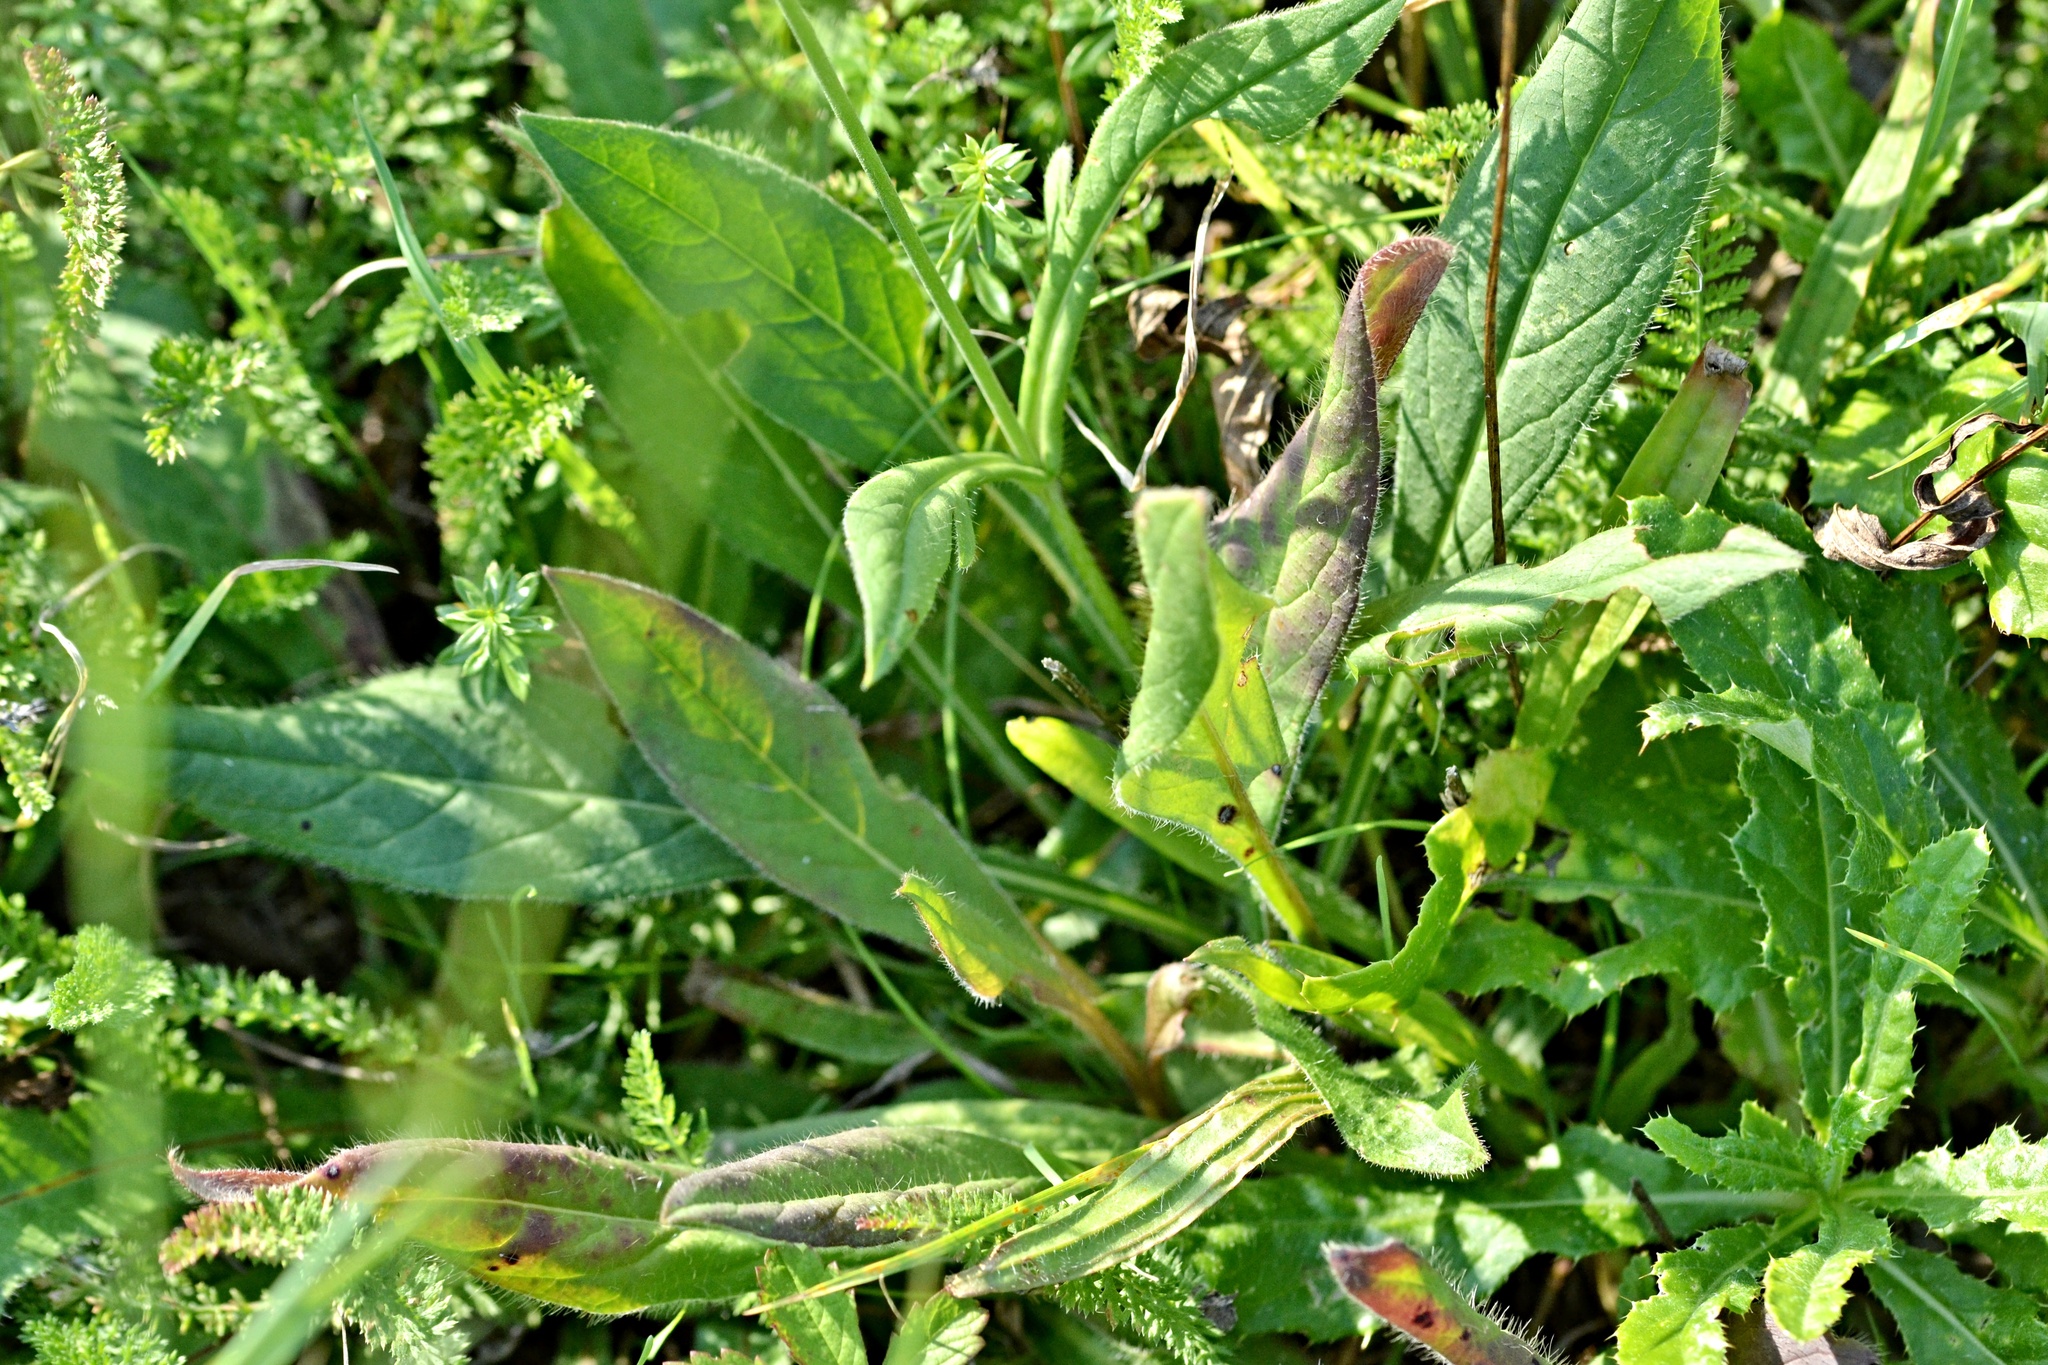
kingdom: Plantae
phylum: Tracheophyta
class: Magnoliopsida
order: Dipsacales
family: Caprifoliaceae
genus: Knautia
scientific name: Knautia arvensis
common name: Field scabiosa
